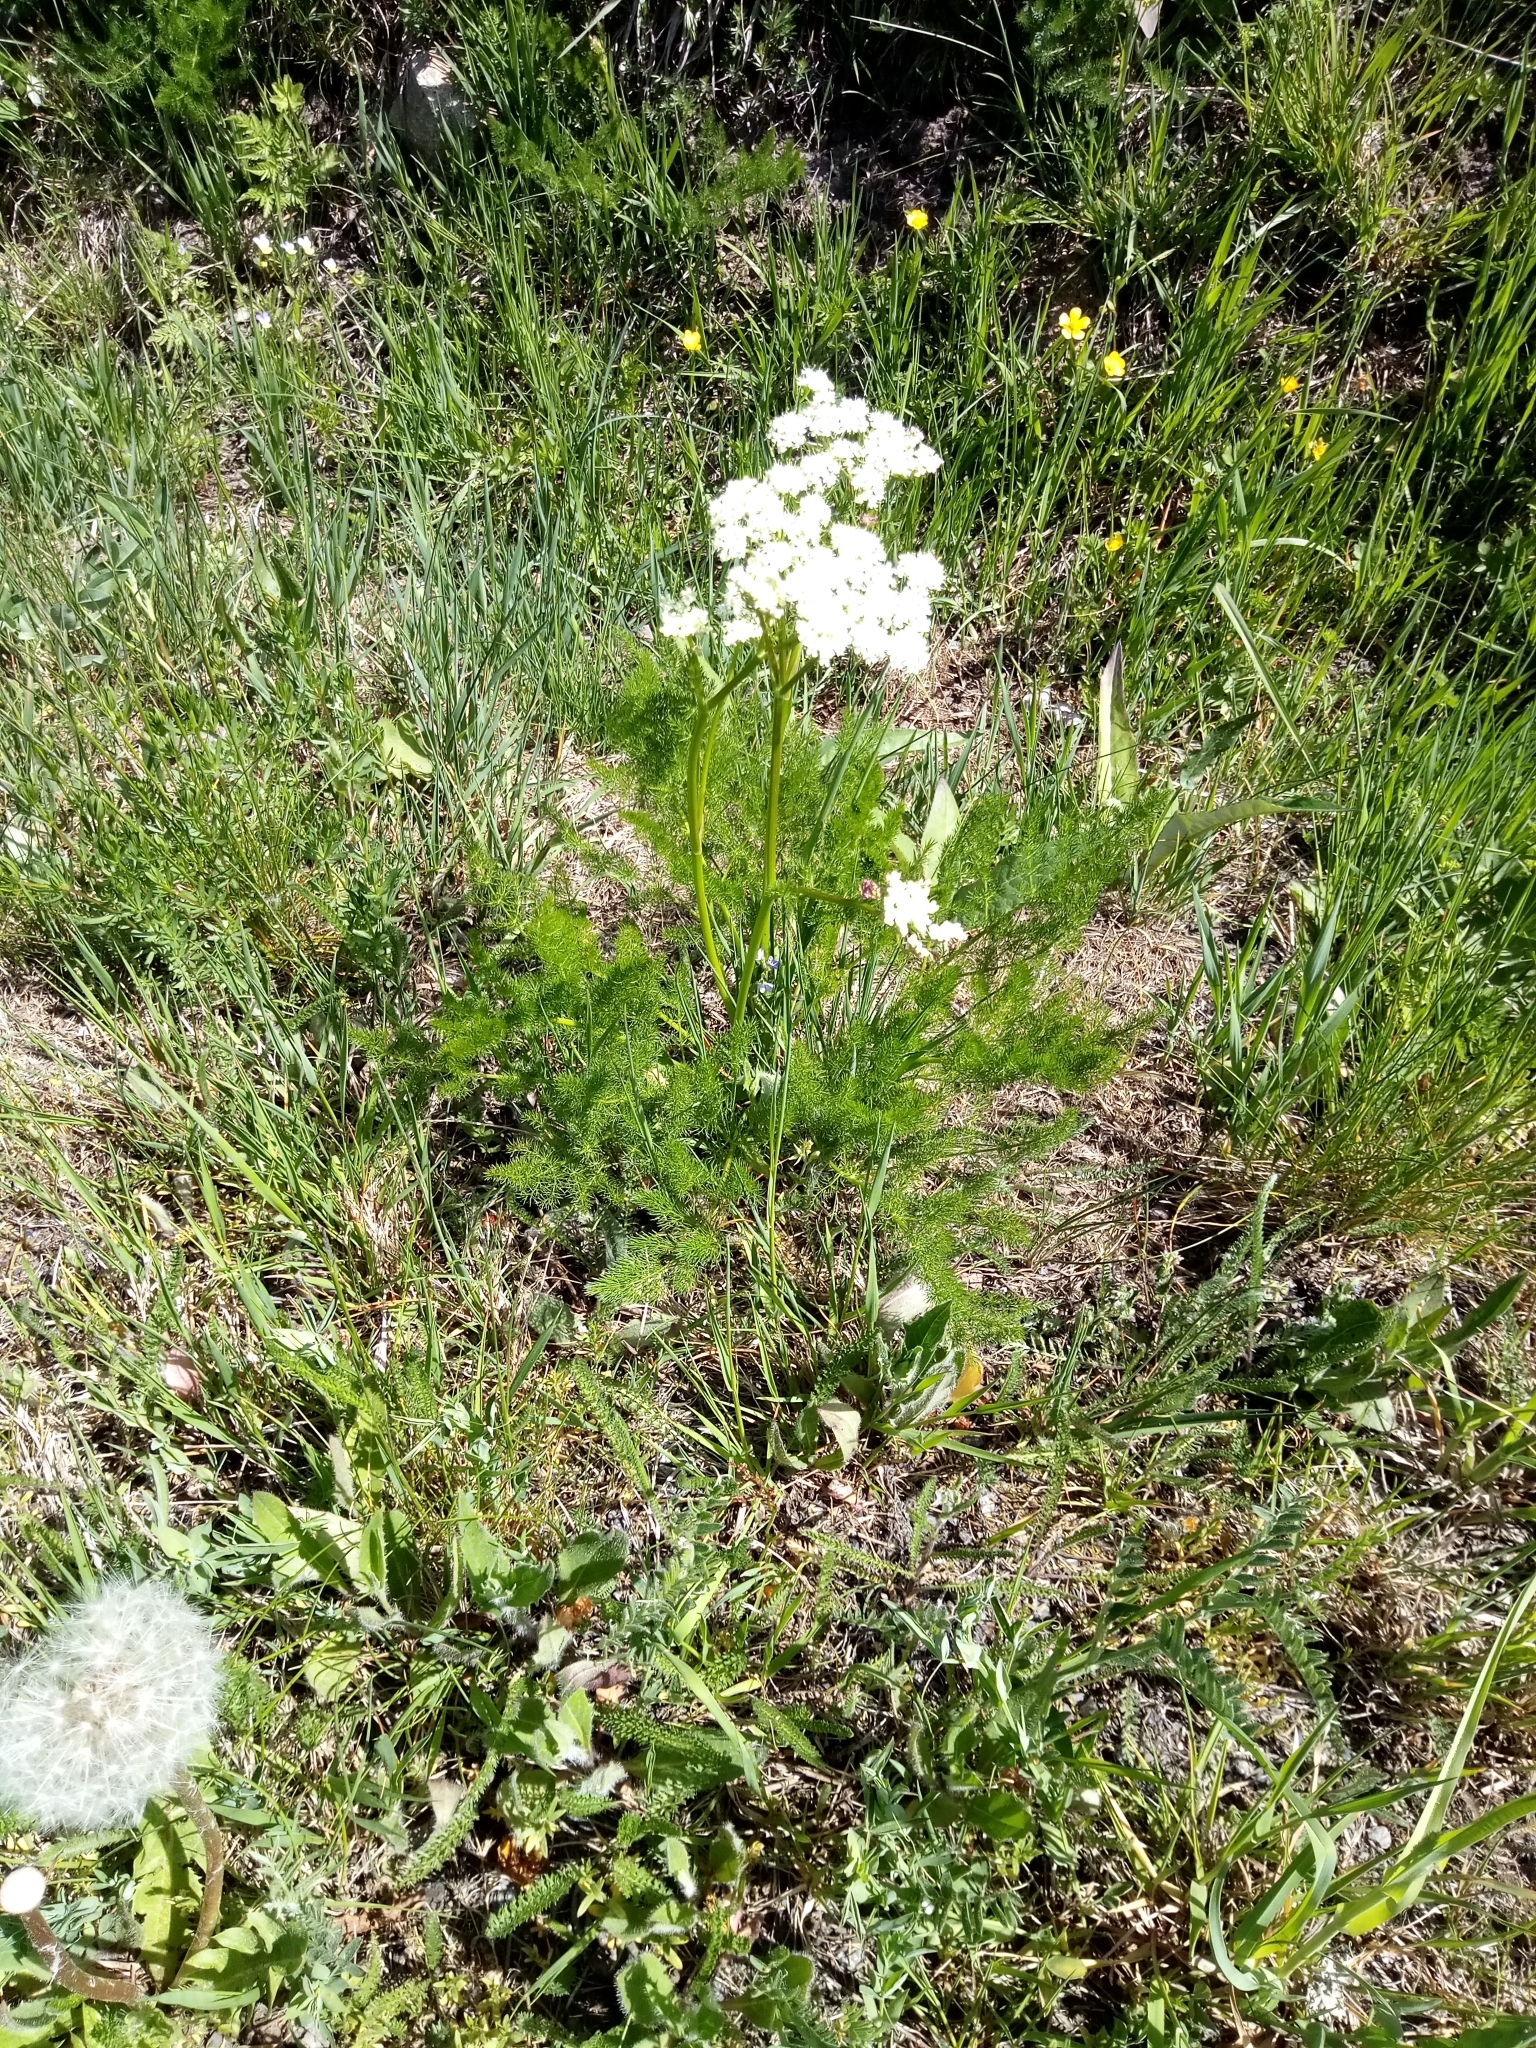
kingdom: Plantae
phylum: Tracheophyta
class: Magnoliopsida
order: Apiales
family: Apiaceae
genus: Meum
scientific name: Meum athamanticum
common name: Spignel
